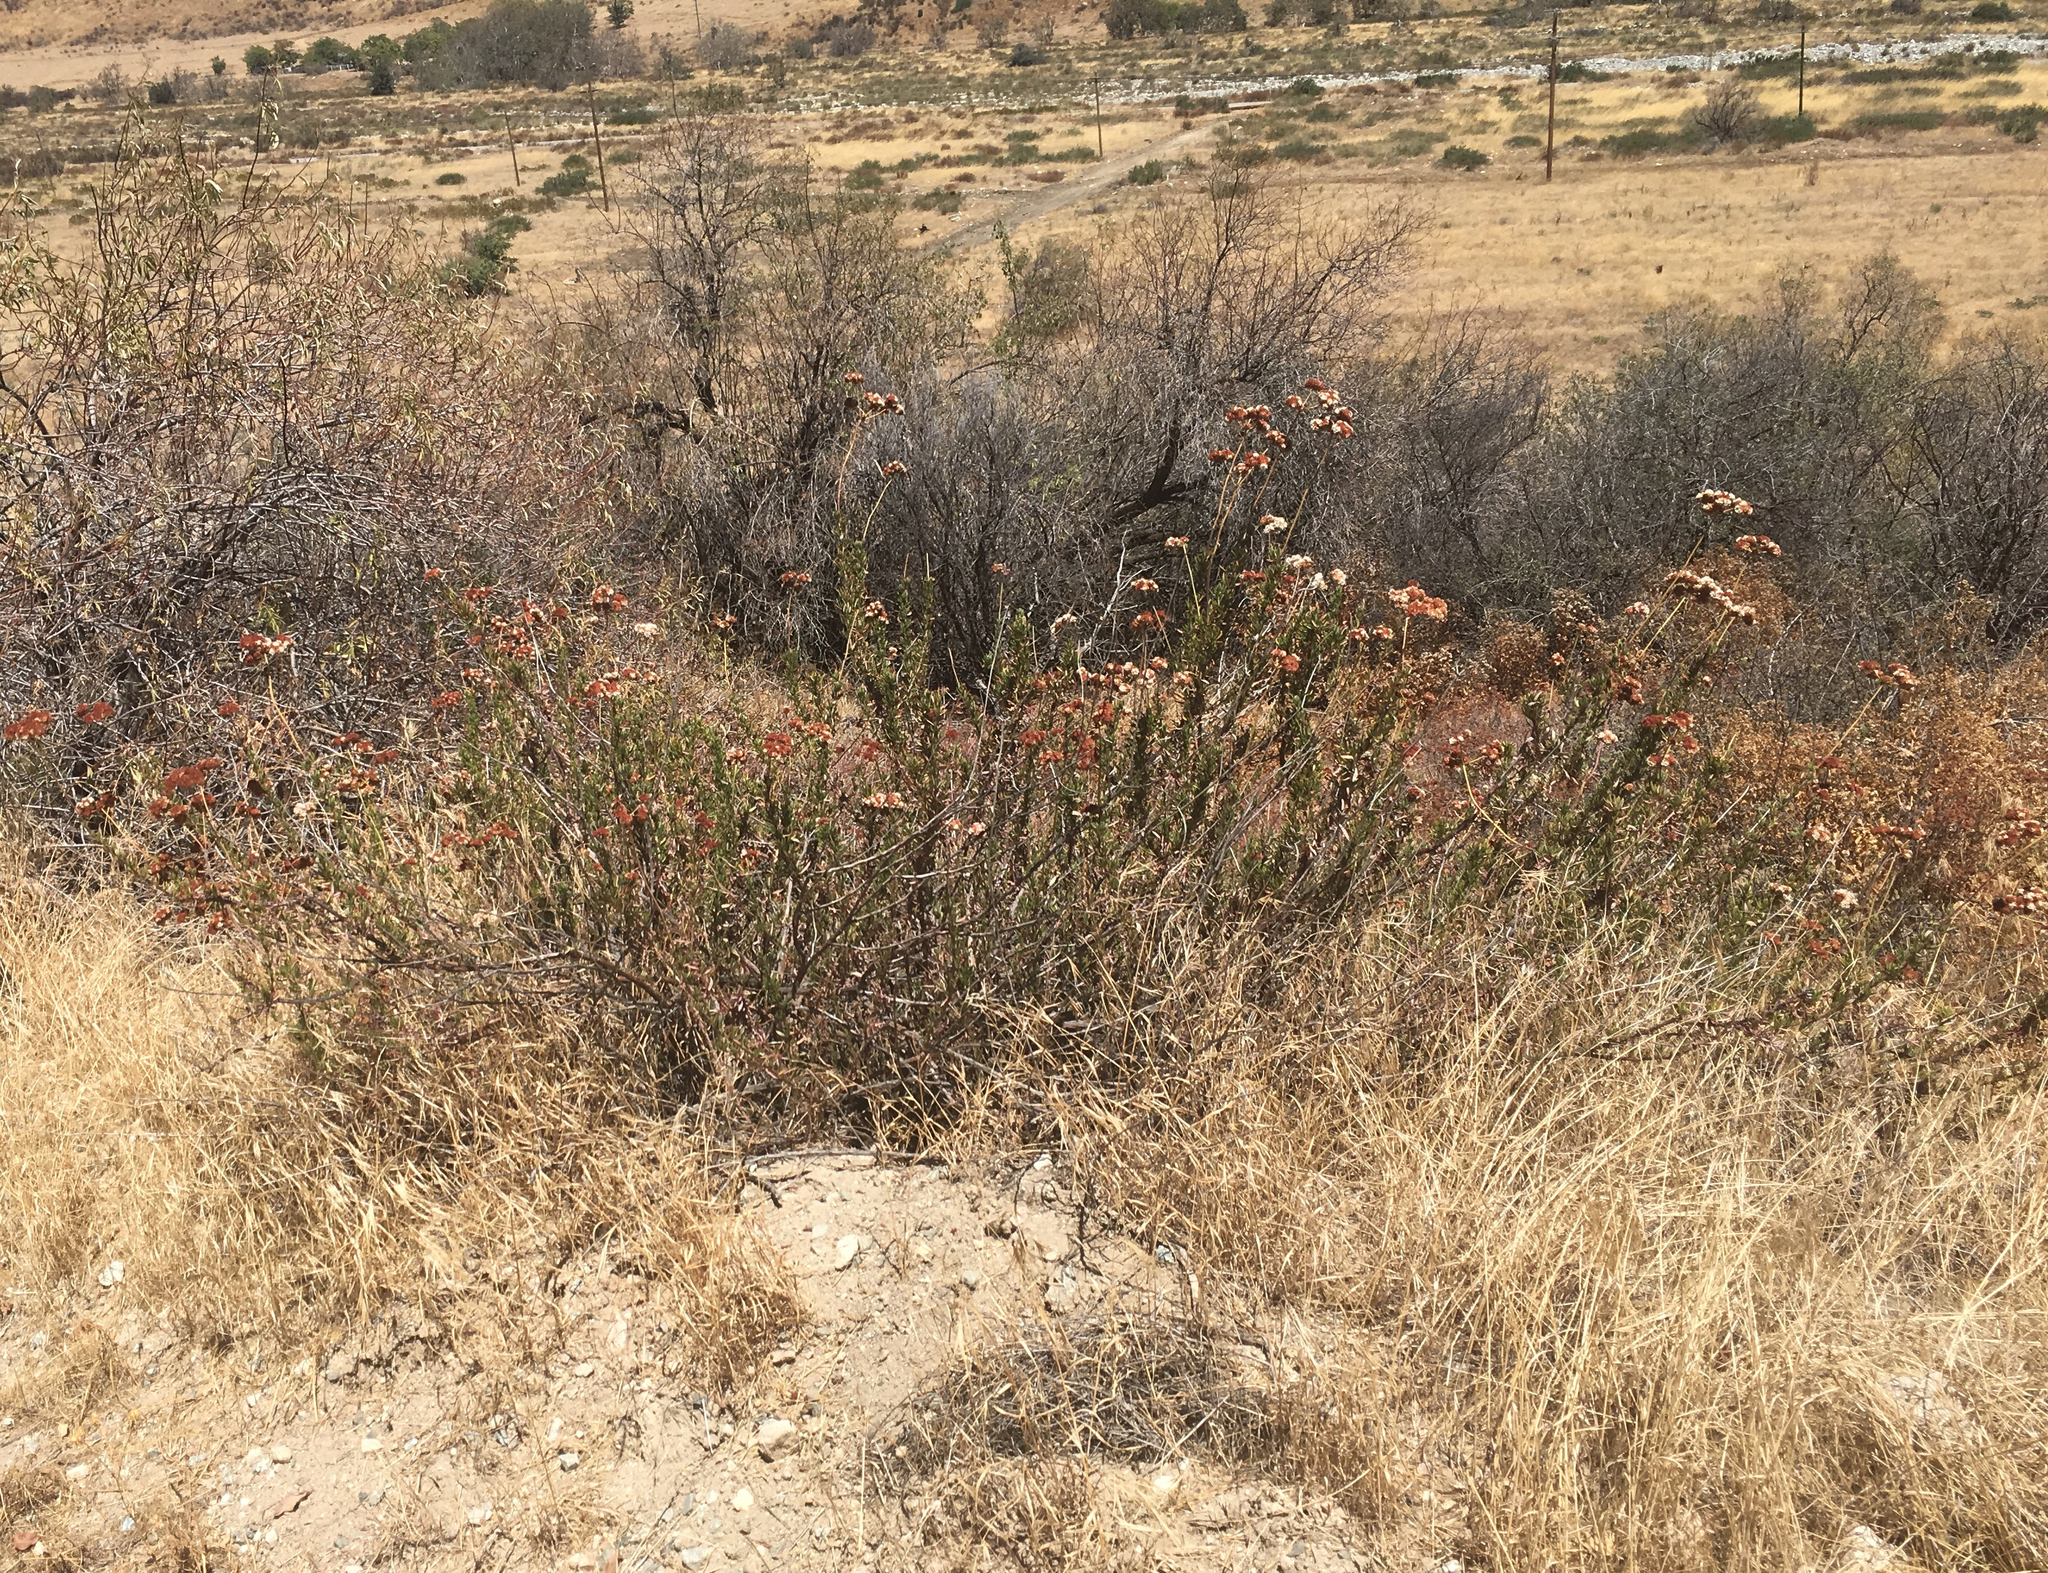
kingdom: Plantae
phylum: Tracheophyta
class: Magnoliopsida
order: Caryophyllales
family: Polygonaceae
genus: Eriogonum
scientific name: Eriogonum fasciculatum
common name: California wild buckwheat
